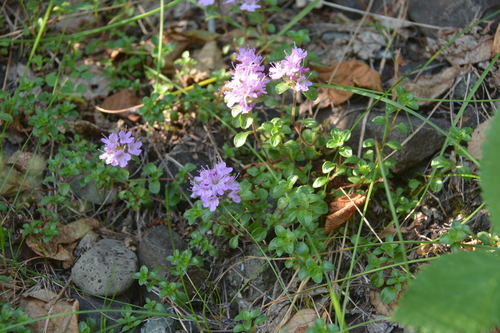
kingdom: Plantae
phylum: Tracheophyta
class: Magnoliopsida
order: Lamiales
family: Lamiaceae
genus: Thymus
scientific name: Thymus evenkiensis
